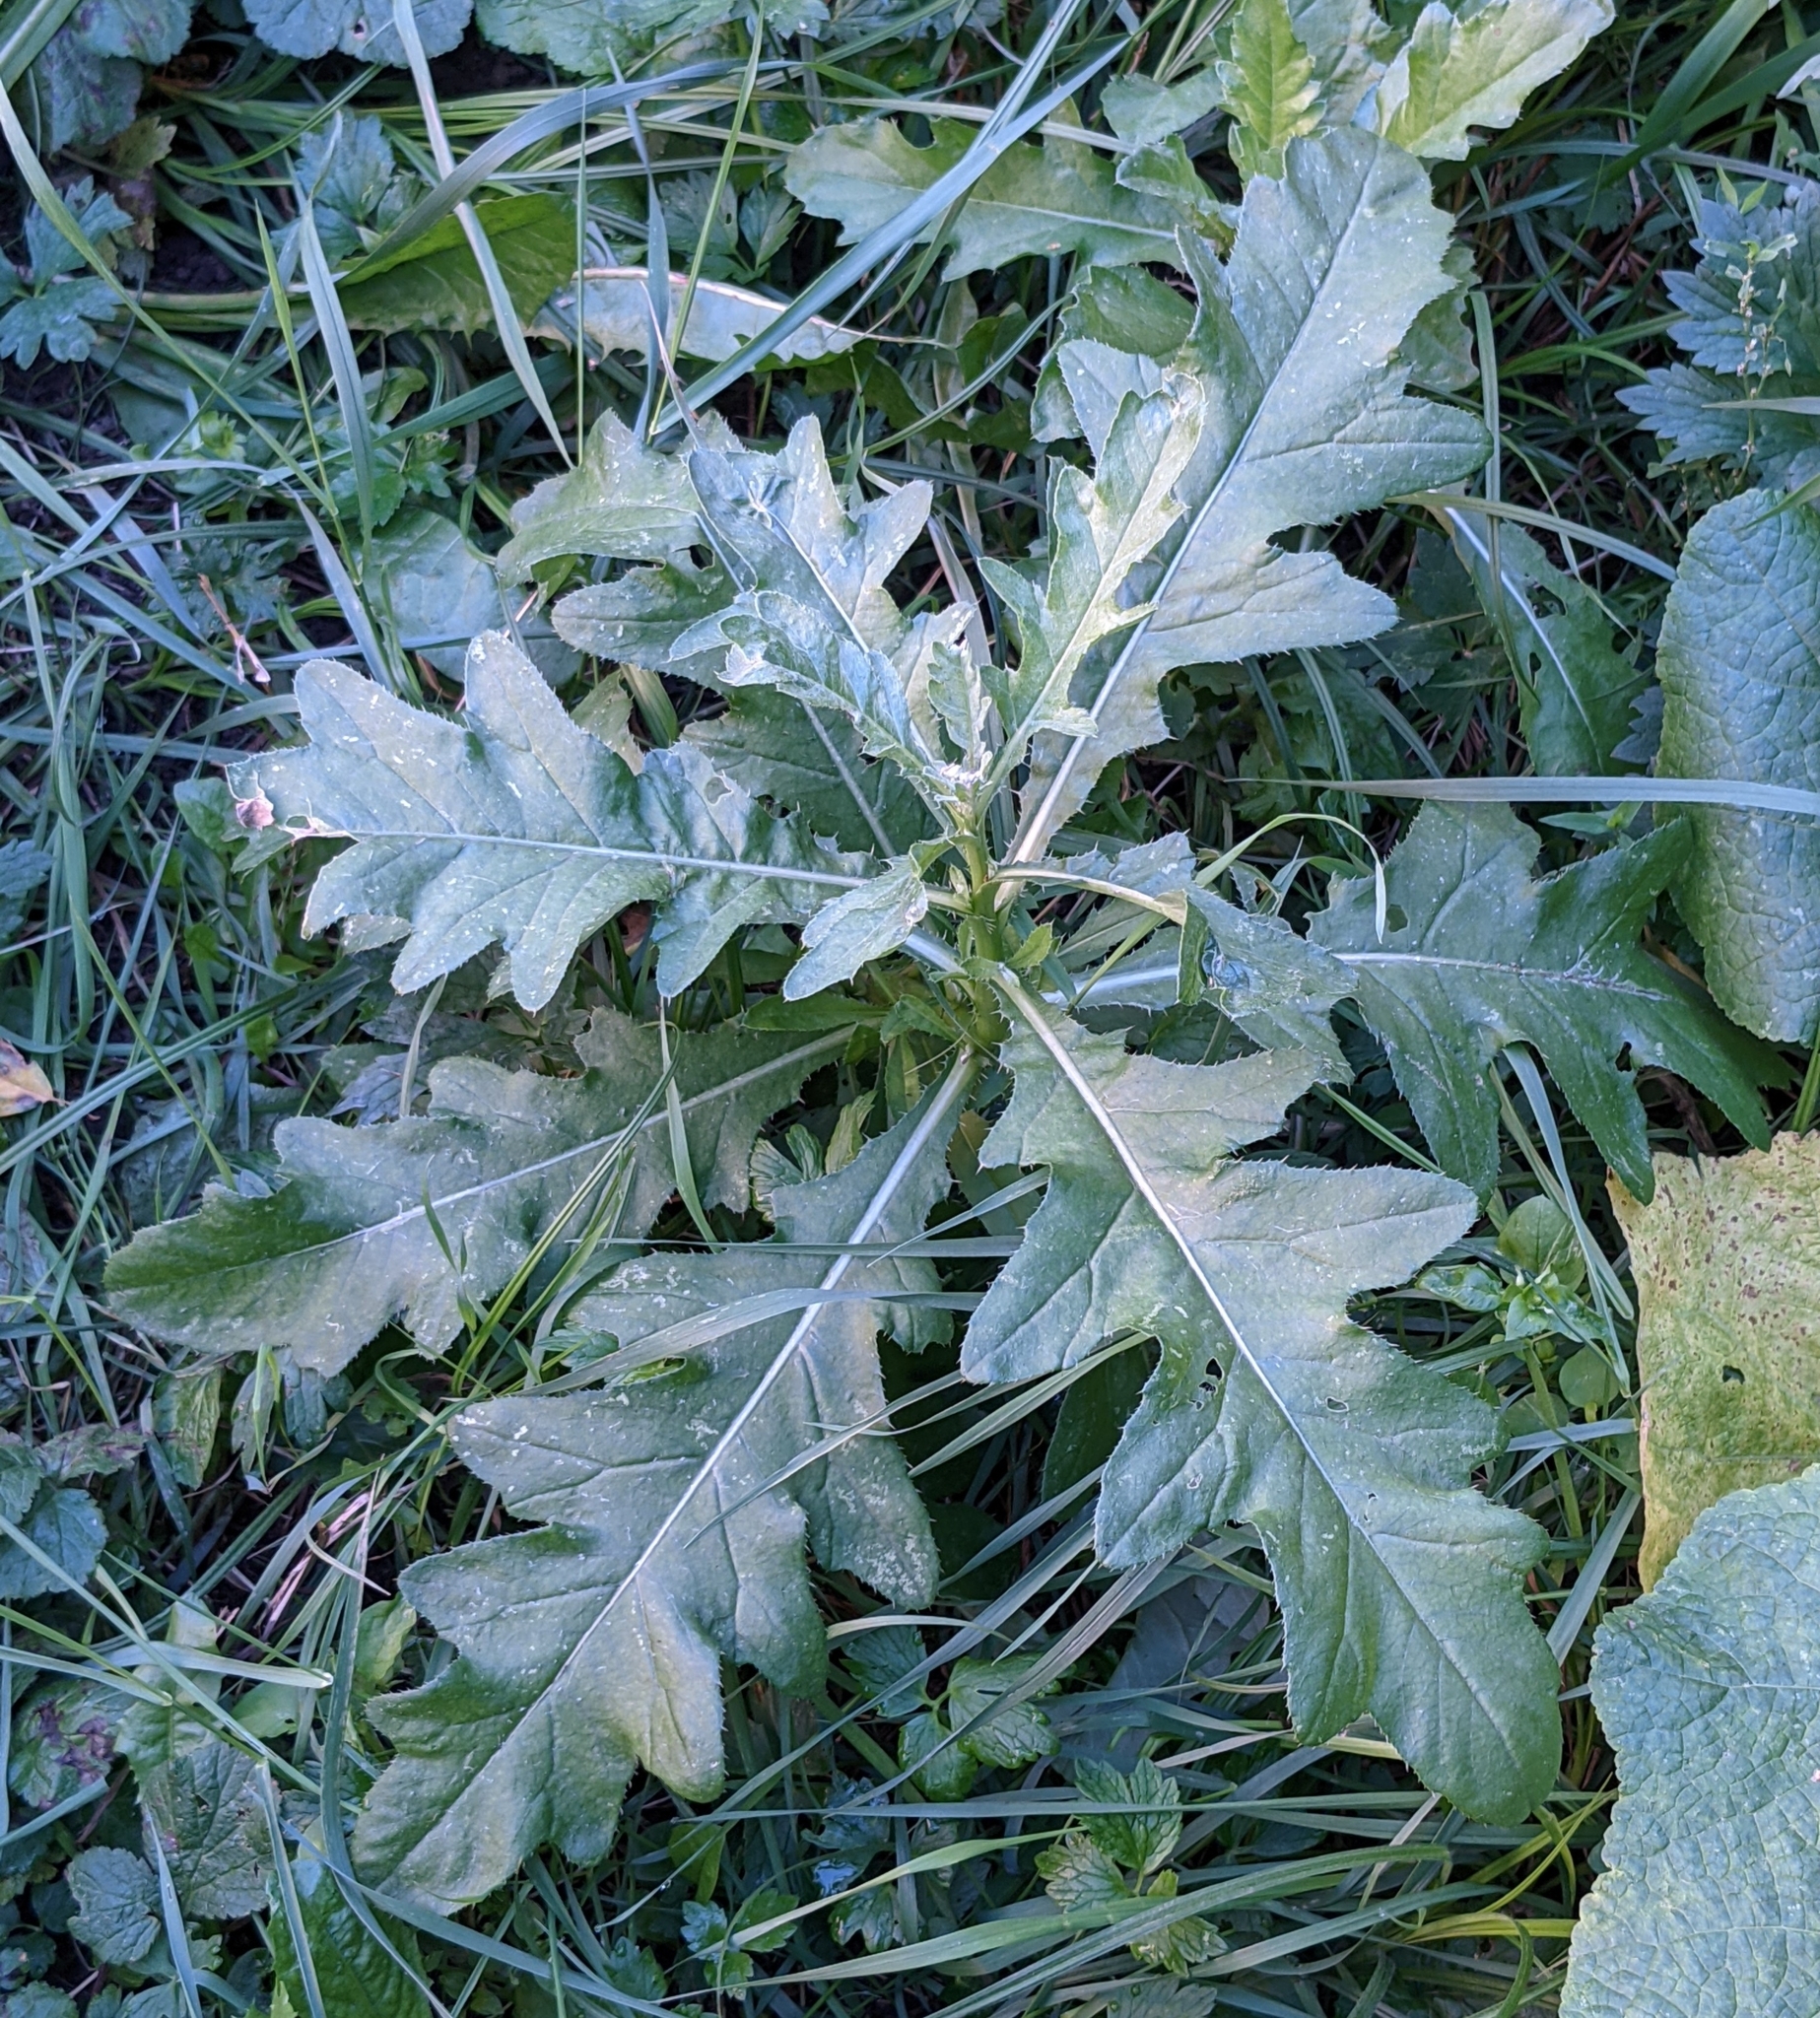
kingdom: Plantae
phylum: Tracheophyta
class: Magnoliopsida
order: Asterales
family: Asteraceae
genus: Cirsium
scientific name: Cirsium arvense
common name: Creeping thistle
